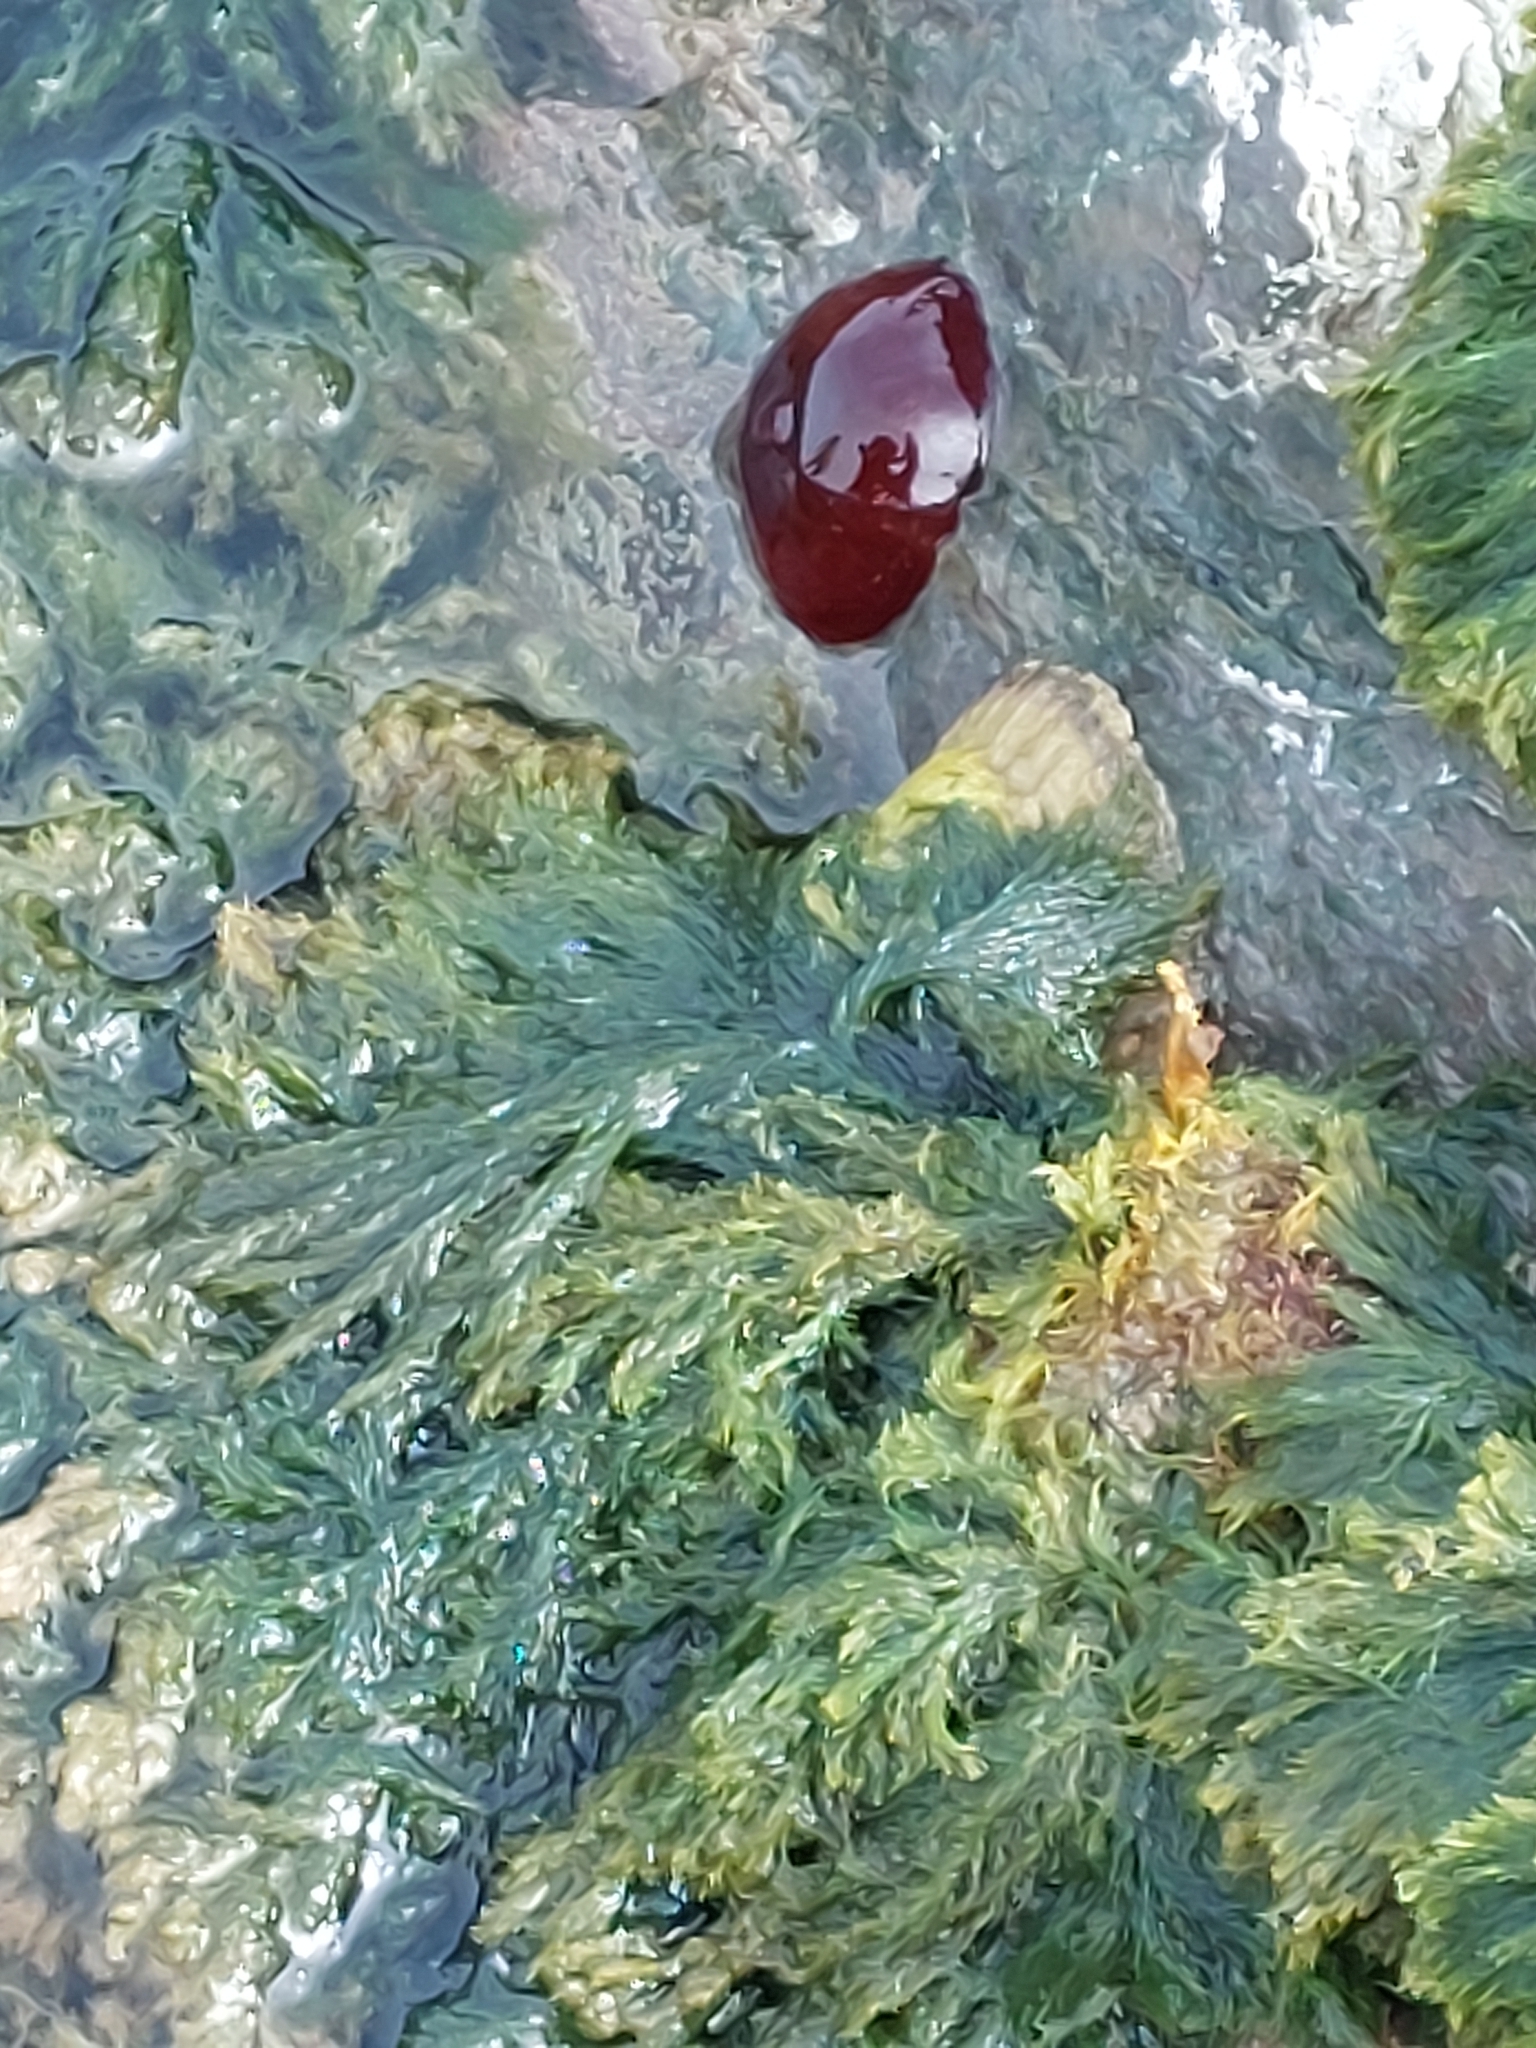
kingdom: Animalia
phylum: Cnidaria
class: Anthozoa
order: Actiniaria
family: Actiniidae
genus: Actinia
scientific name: Actinia equina
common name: Beadlet anemone
